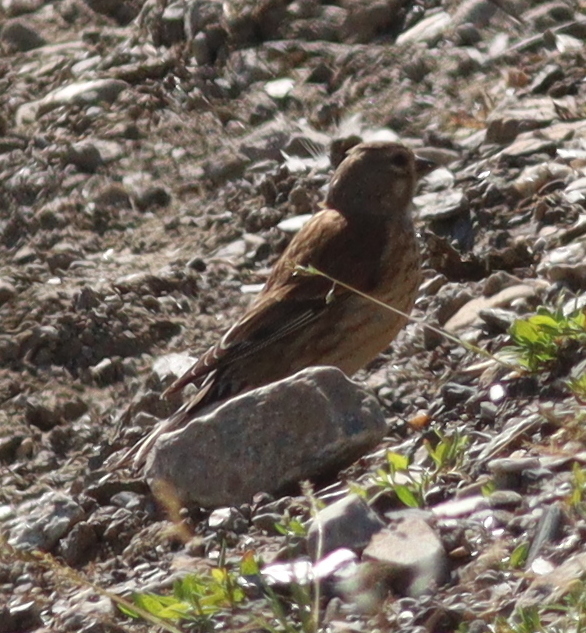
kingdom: Animalia
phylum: Chordata
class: Aves
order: Passeriformes
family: Fringillidae
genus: Linaria
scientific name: Linaria cannabina
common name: Common linnet
